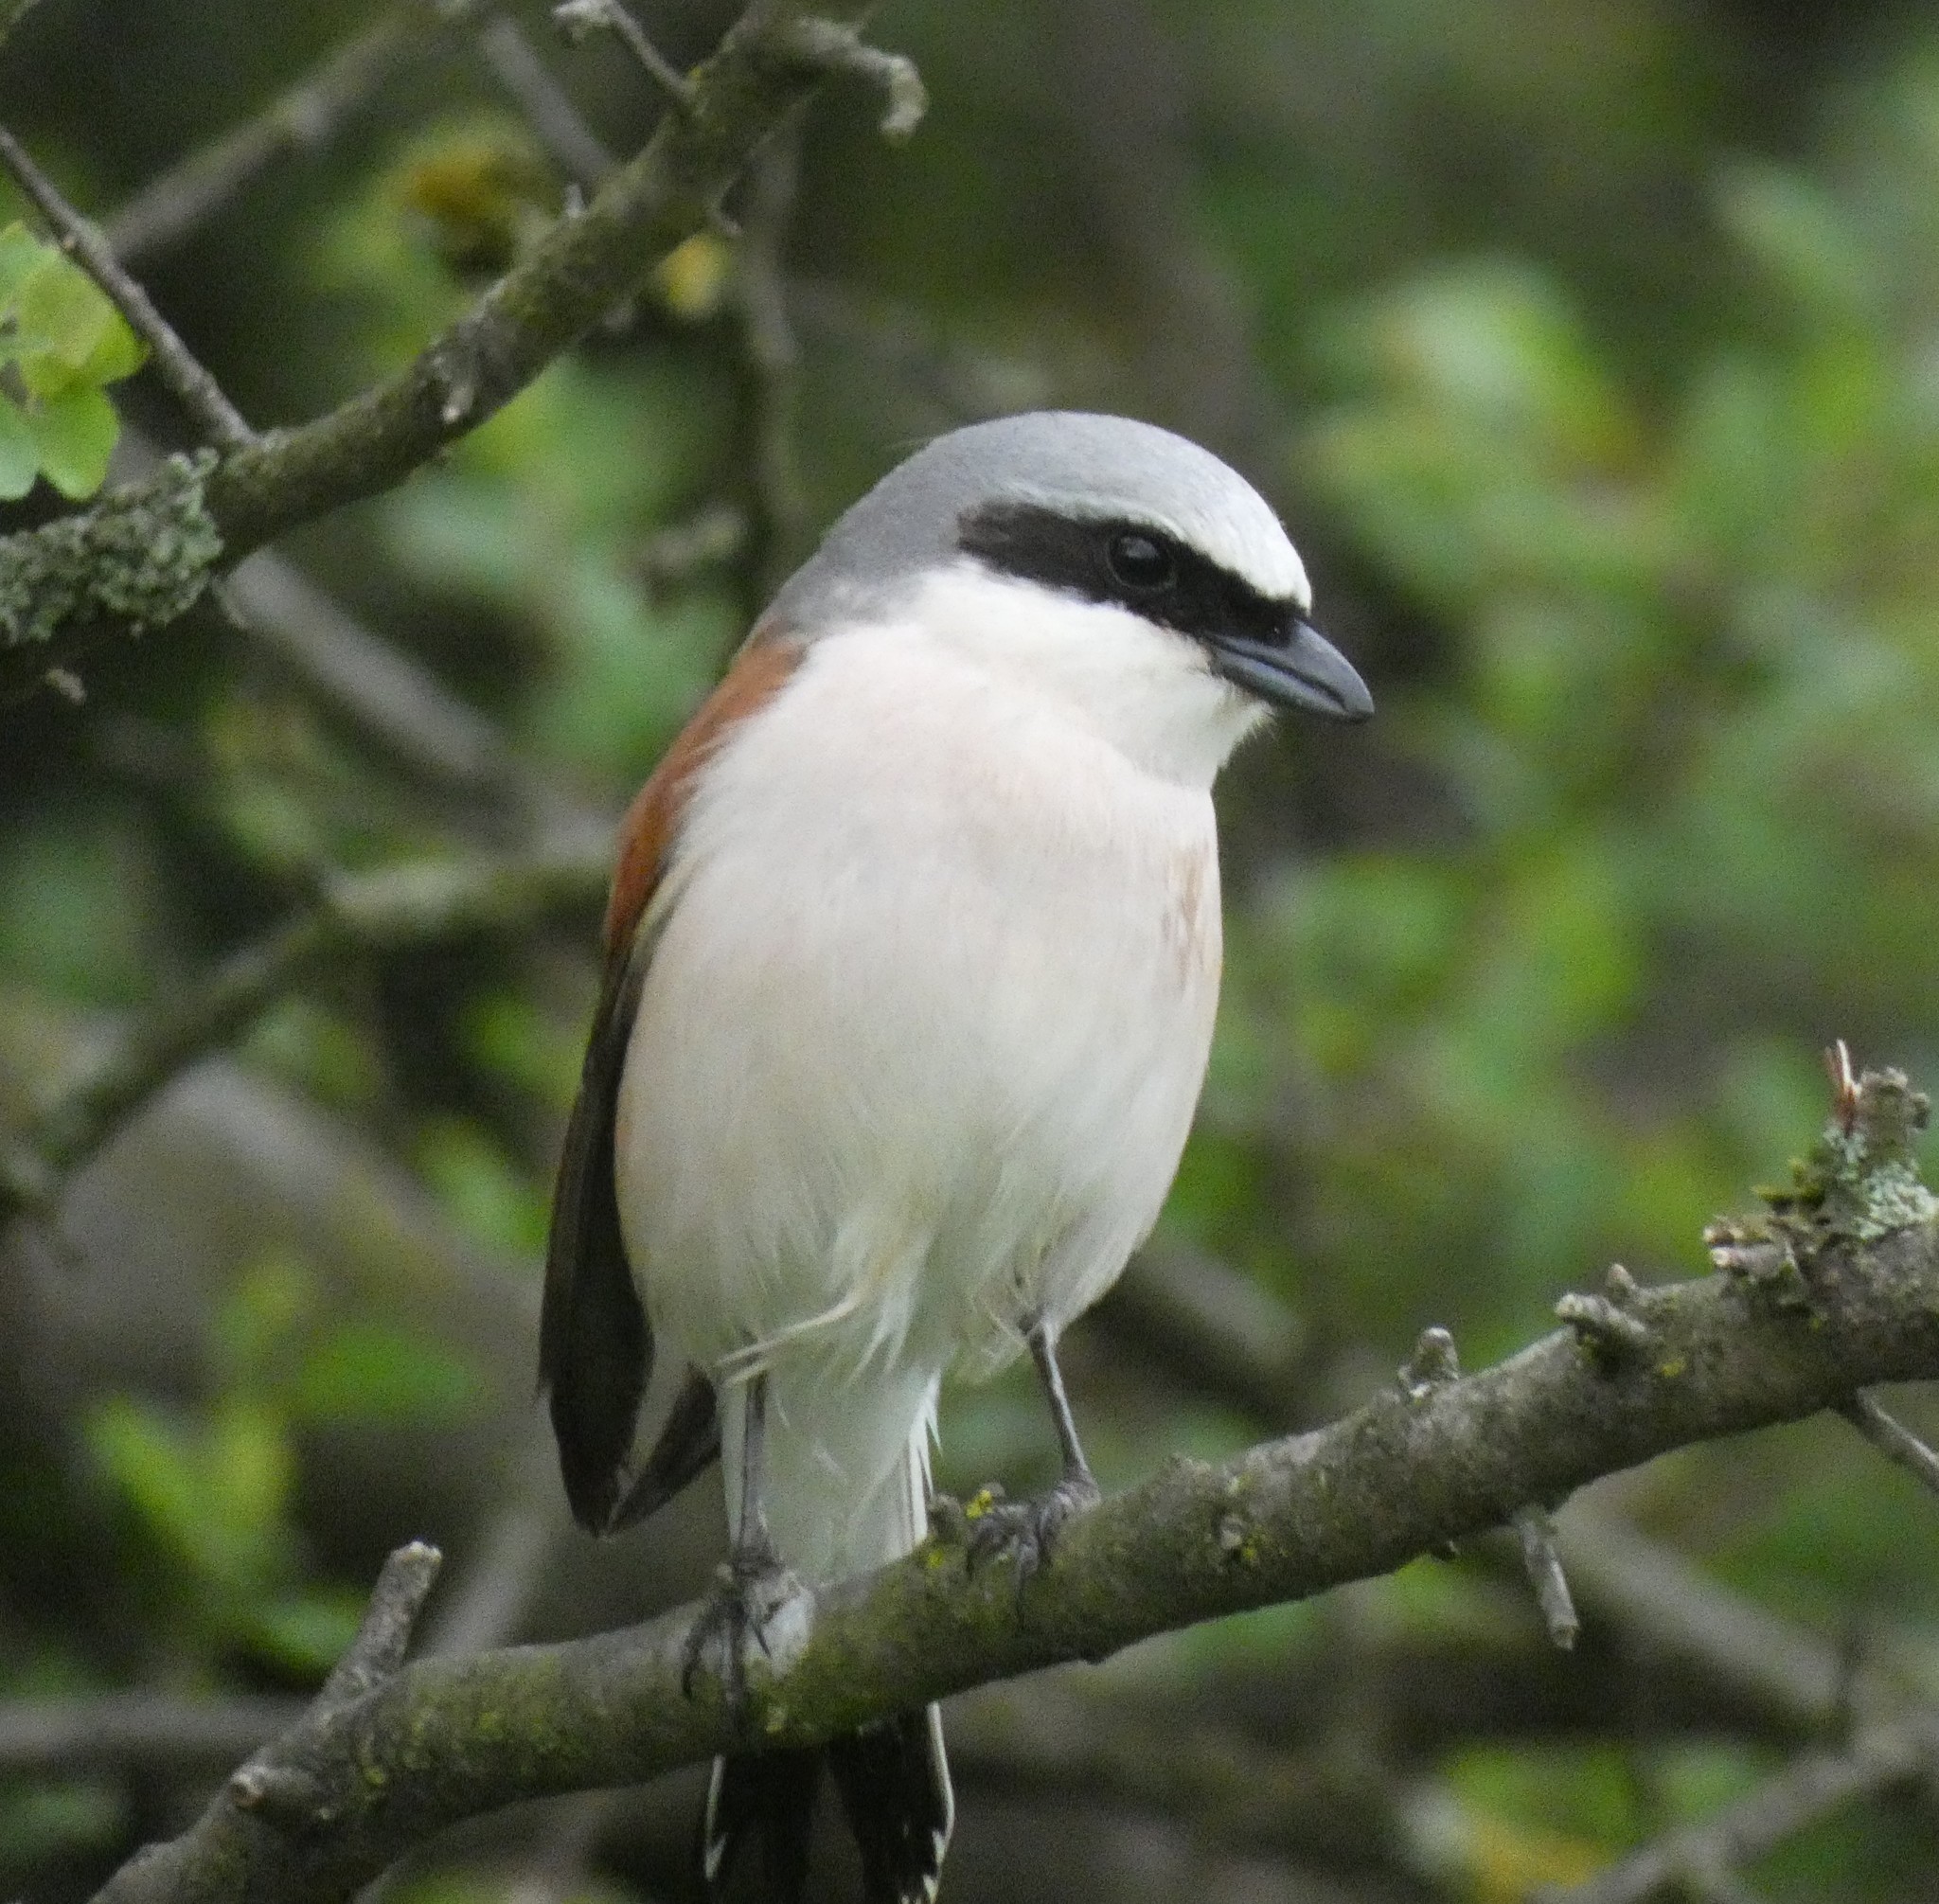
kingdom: Animalia
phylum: Chordata
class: Aves
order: Passeriformes
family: Laniidae
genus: Lanius
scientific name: Lanius collurio
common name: Red-backed shrike
